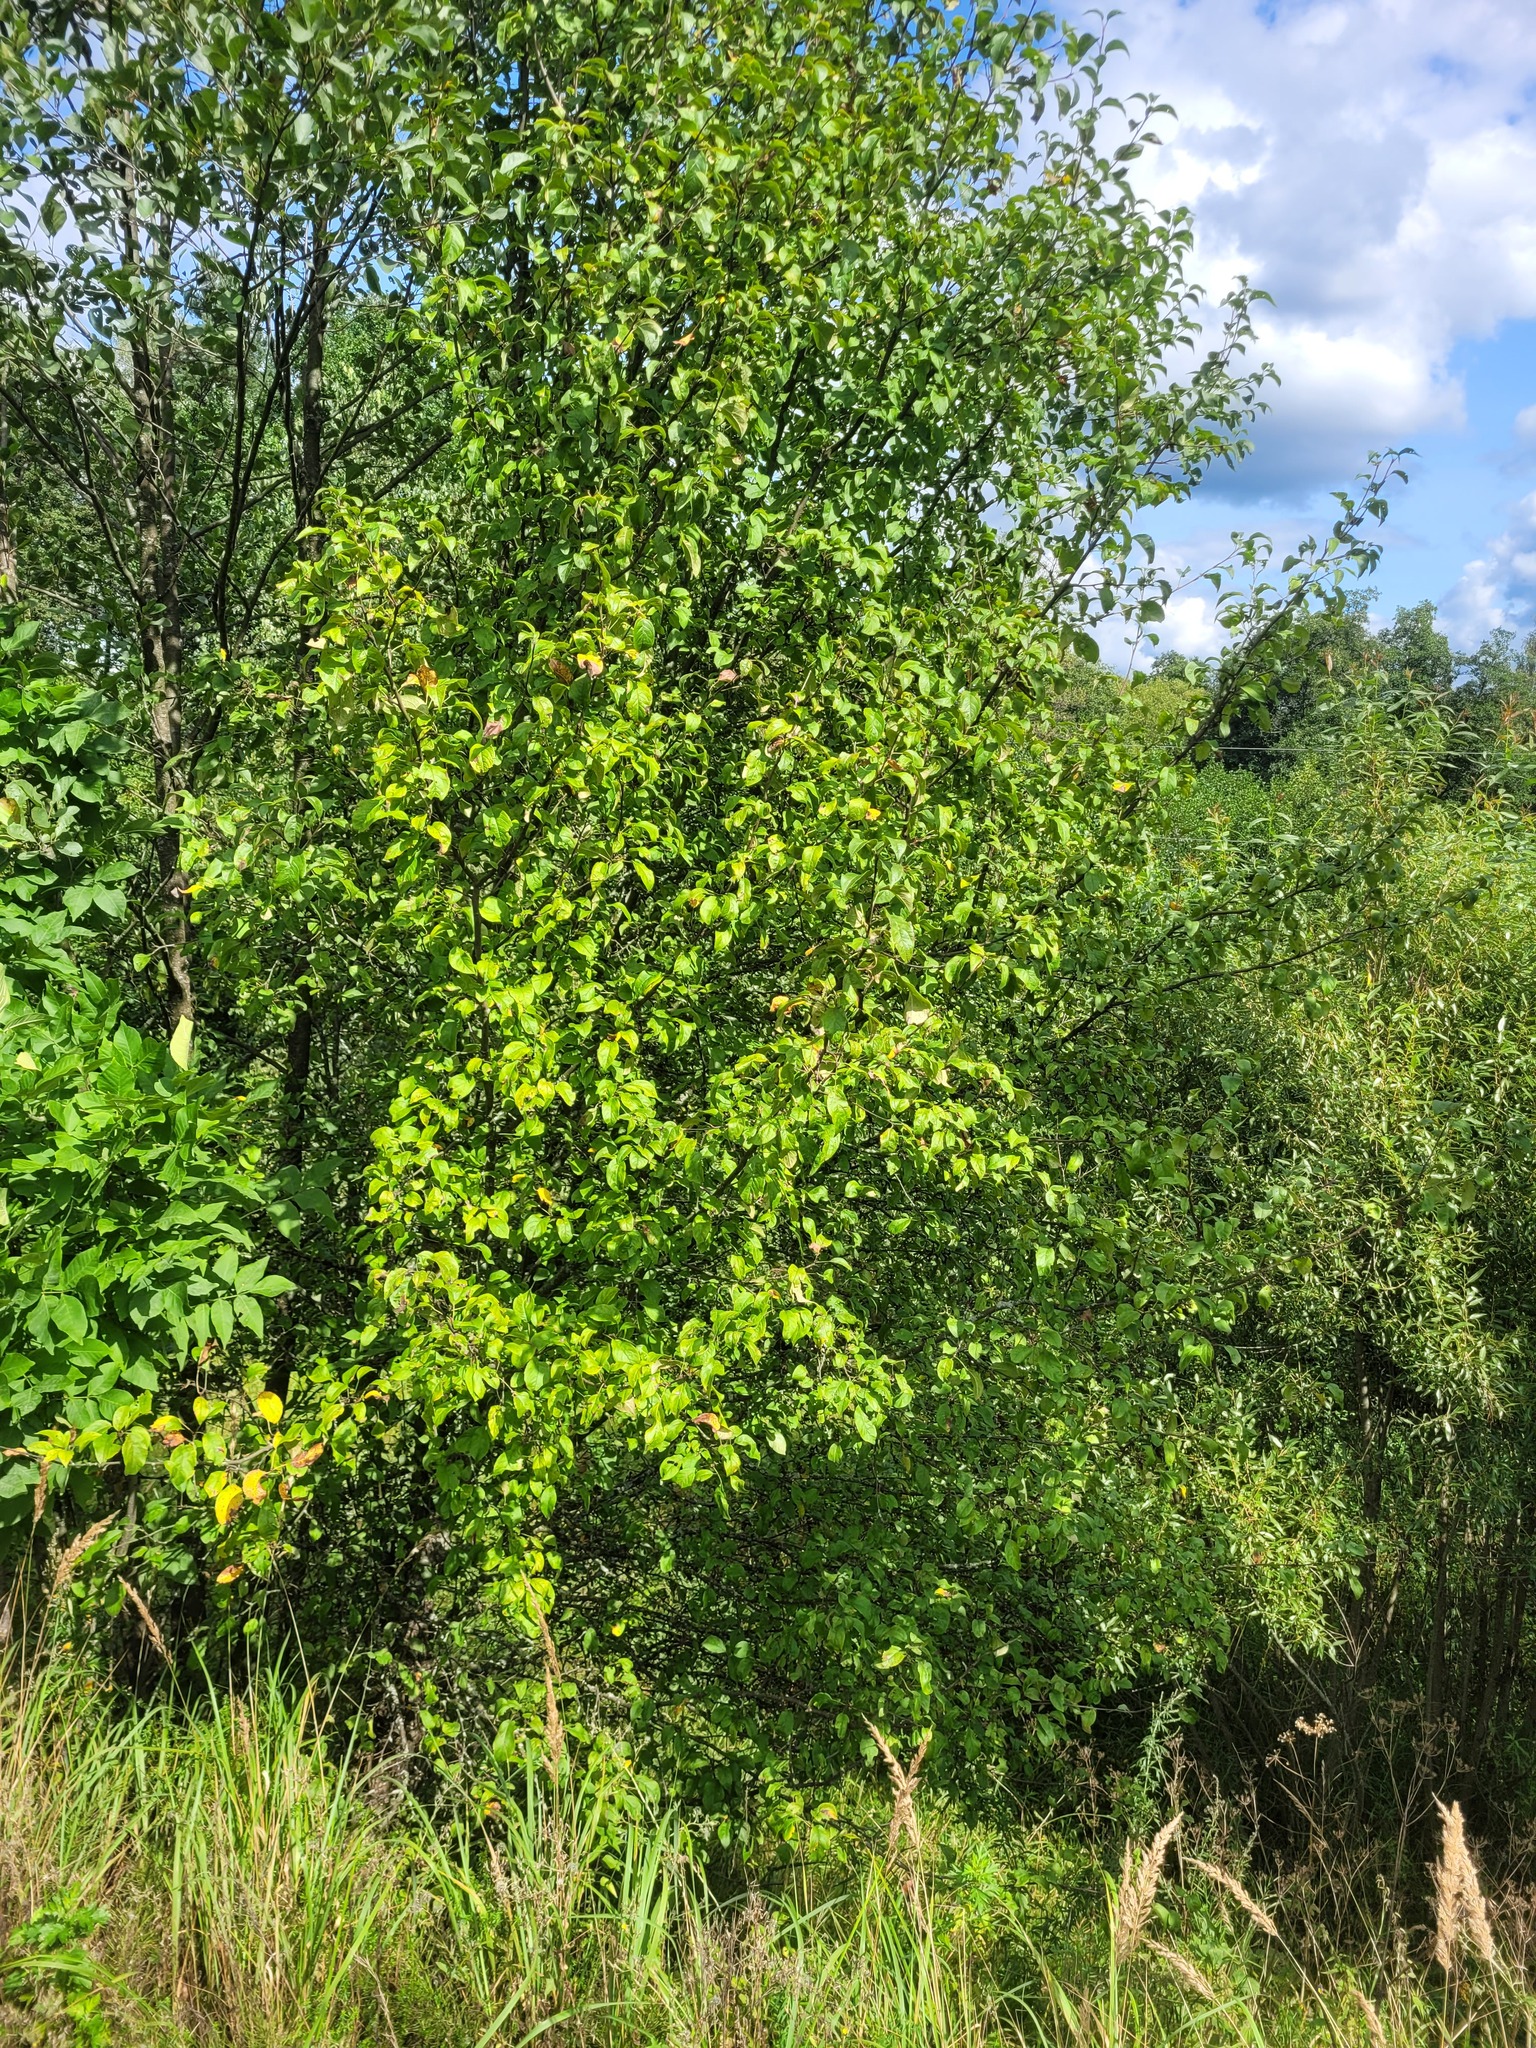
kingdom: Plantae
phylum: Tracheophyta
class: Magnoliopsida
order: Rosales
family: Rosaceae
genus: Malus
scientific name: Malus domestica
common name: Apple
